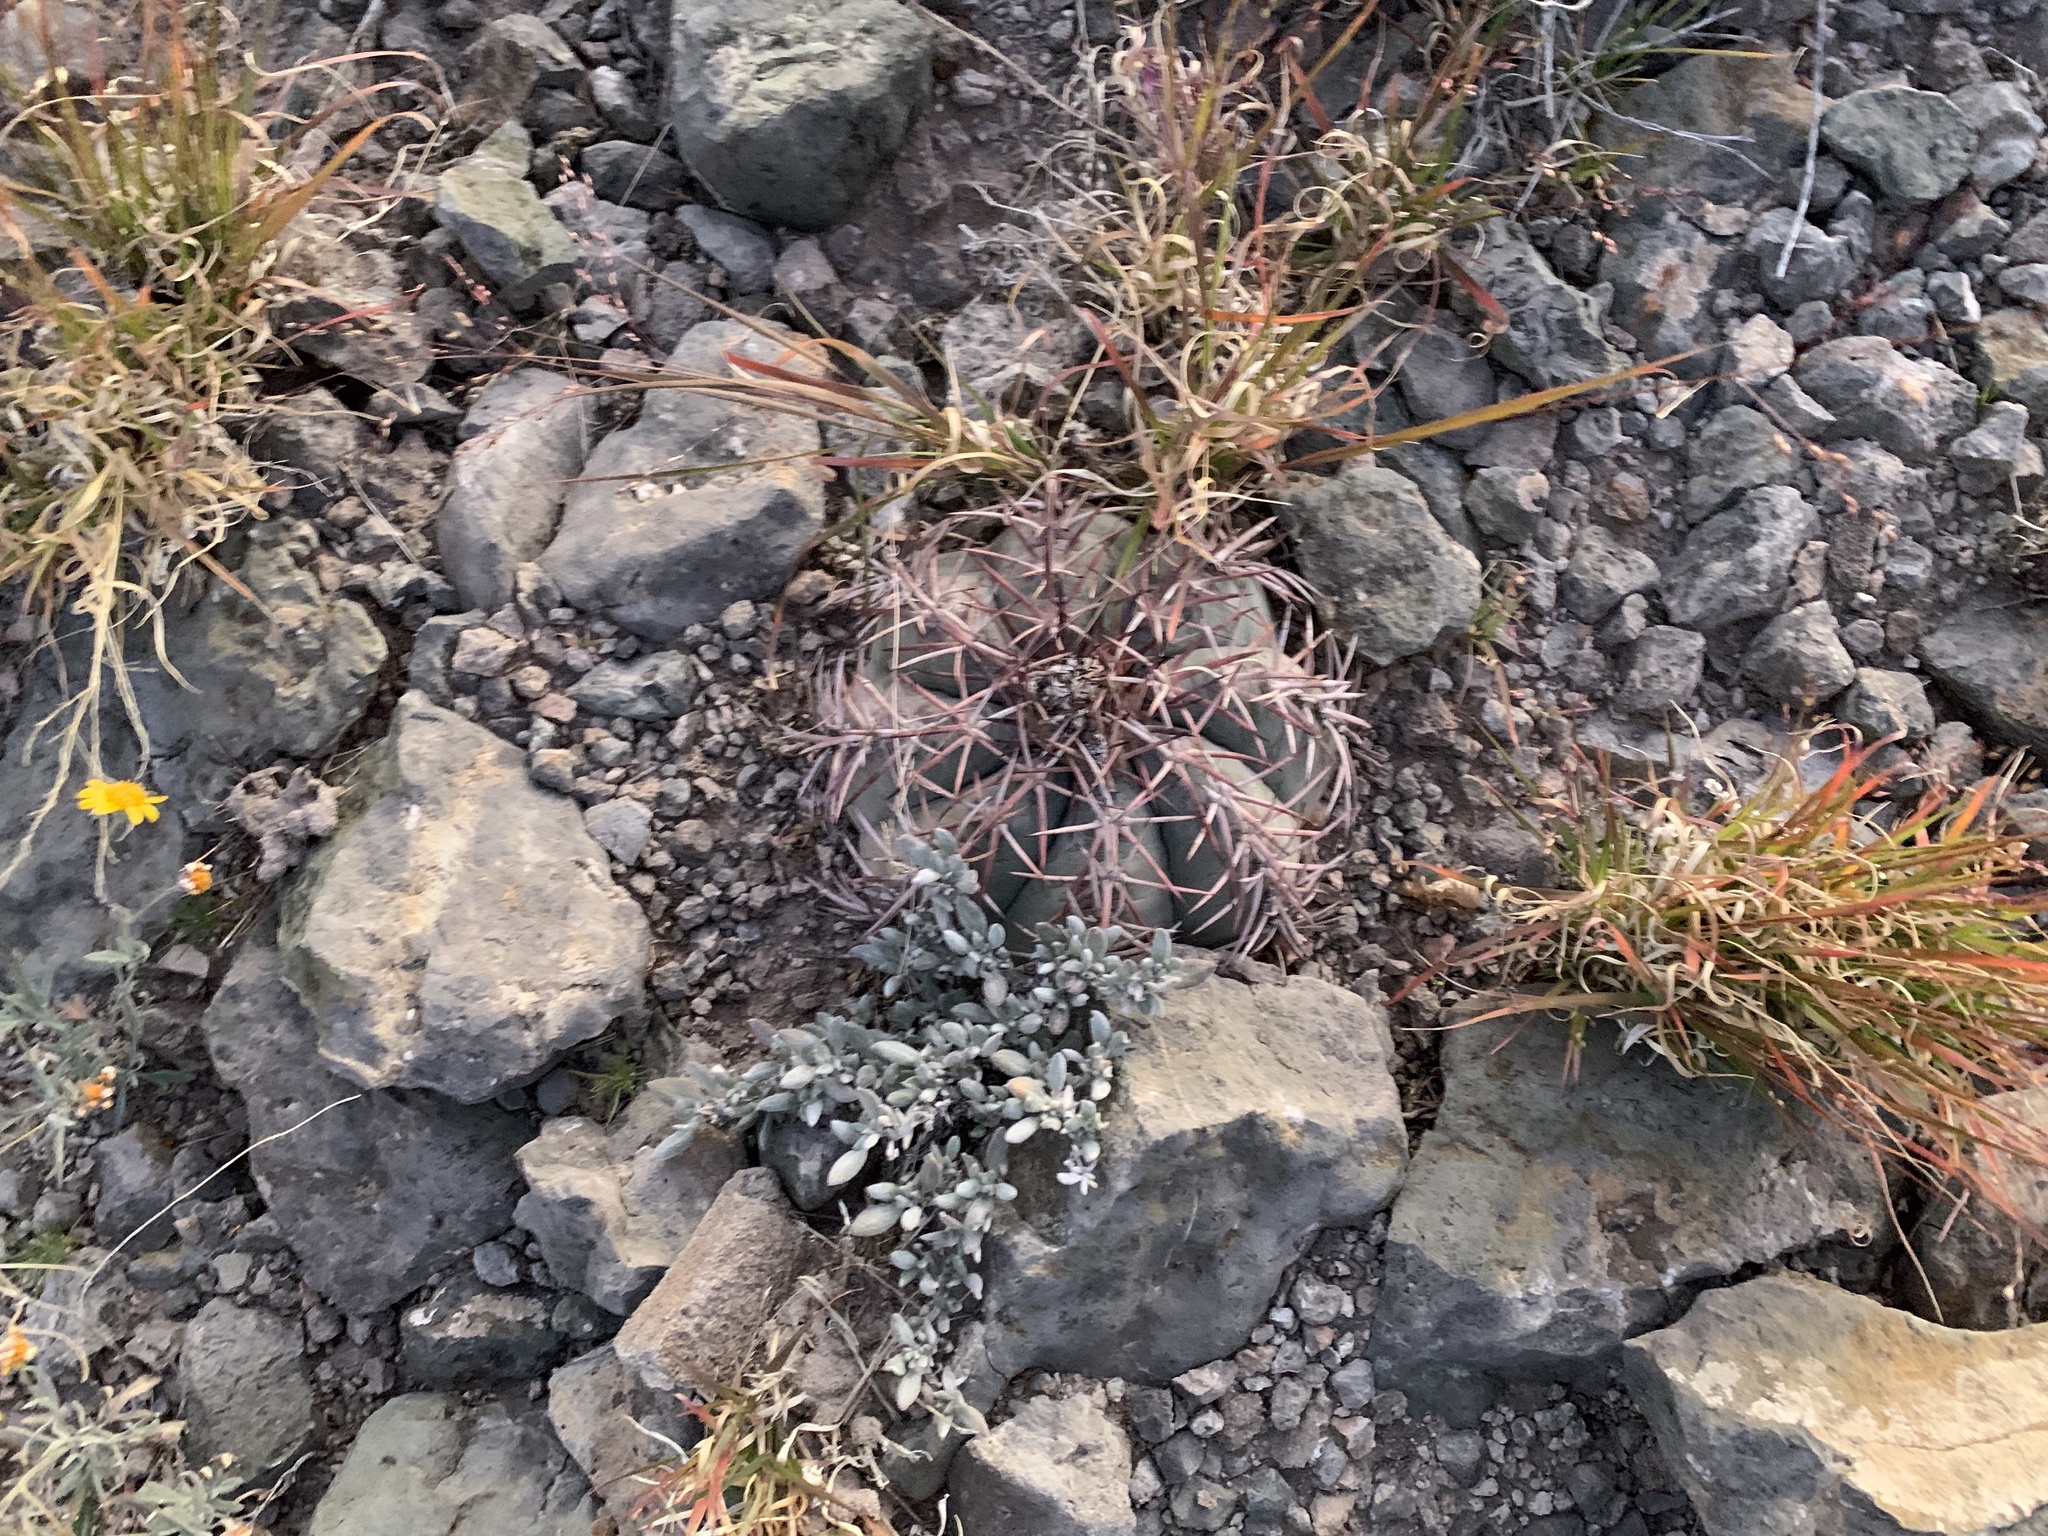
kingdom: Plantae
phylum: Tracheophyta
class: Magnoliopsida
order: Caryophyllales
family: Cactaceae
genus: Echinocactus
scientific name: Echinocactus horizonthalonius
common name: Devilshead
